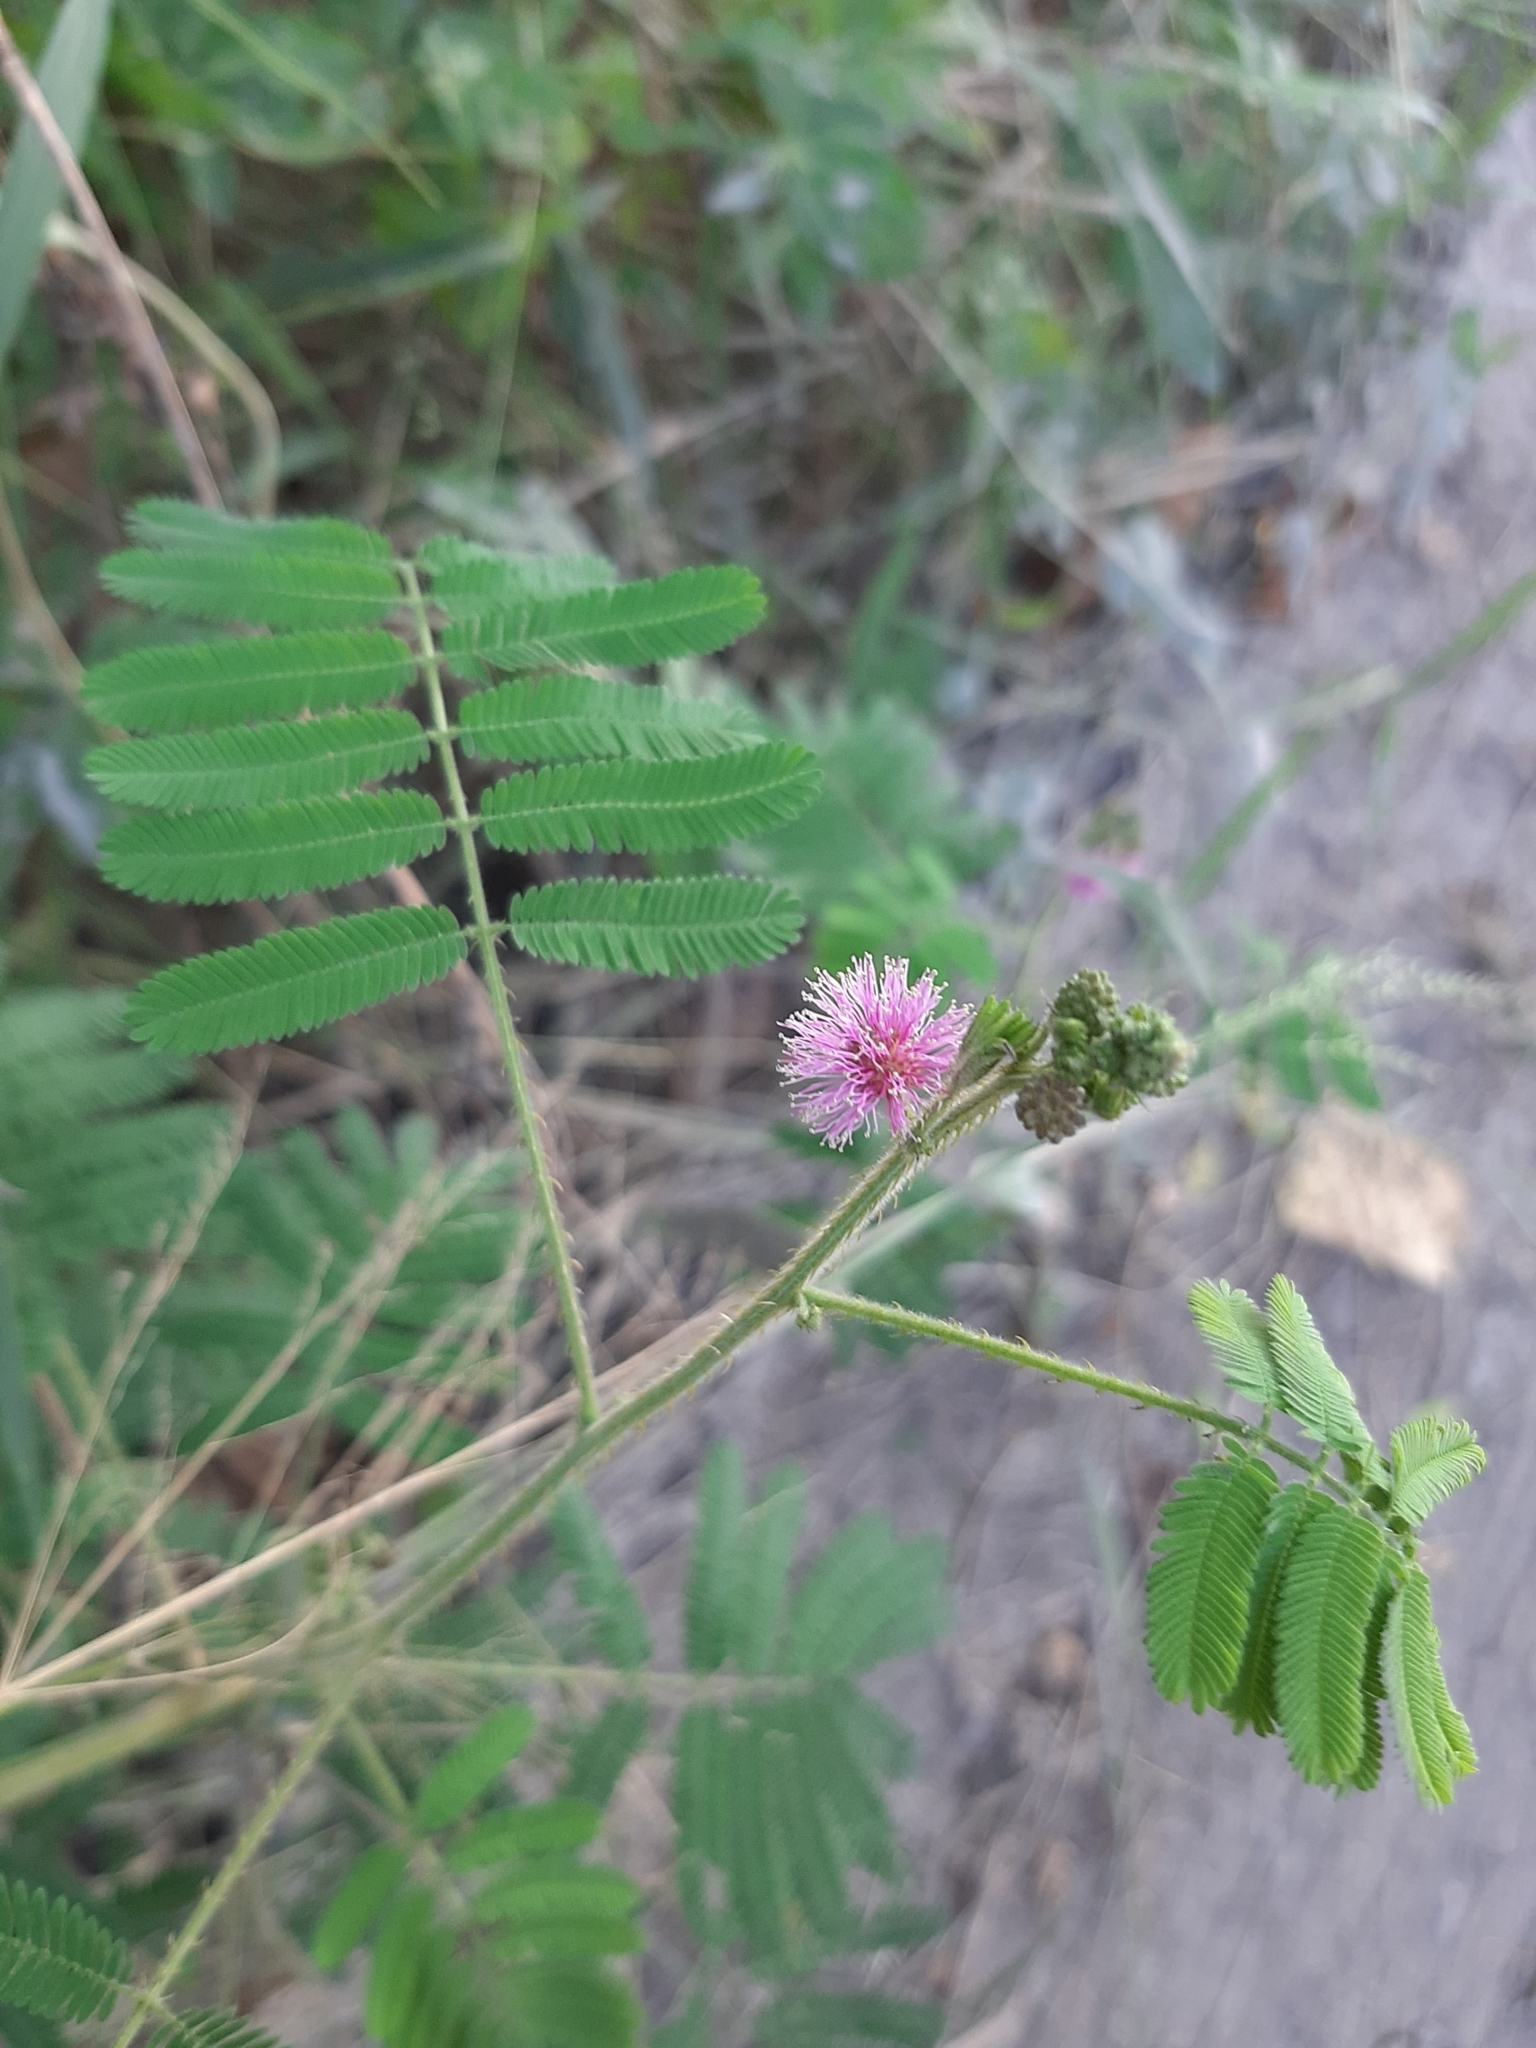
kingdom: Plantae
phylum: Tracheophyta
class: Magnoliopsida
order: Fabales
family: Fabaceae
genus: Mimosa
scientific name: Mimosa diplotricha
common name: Giant sensitive-plant
